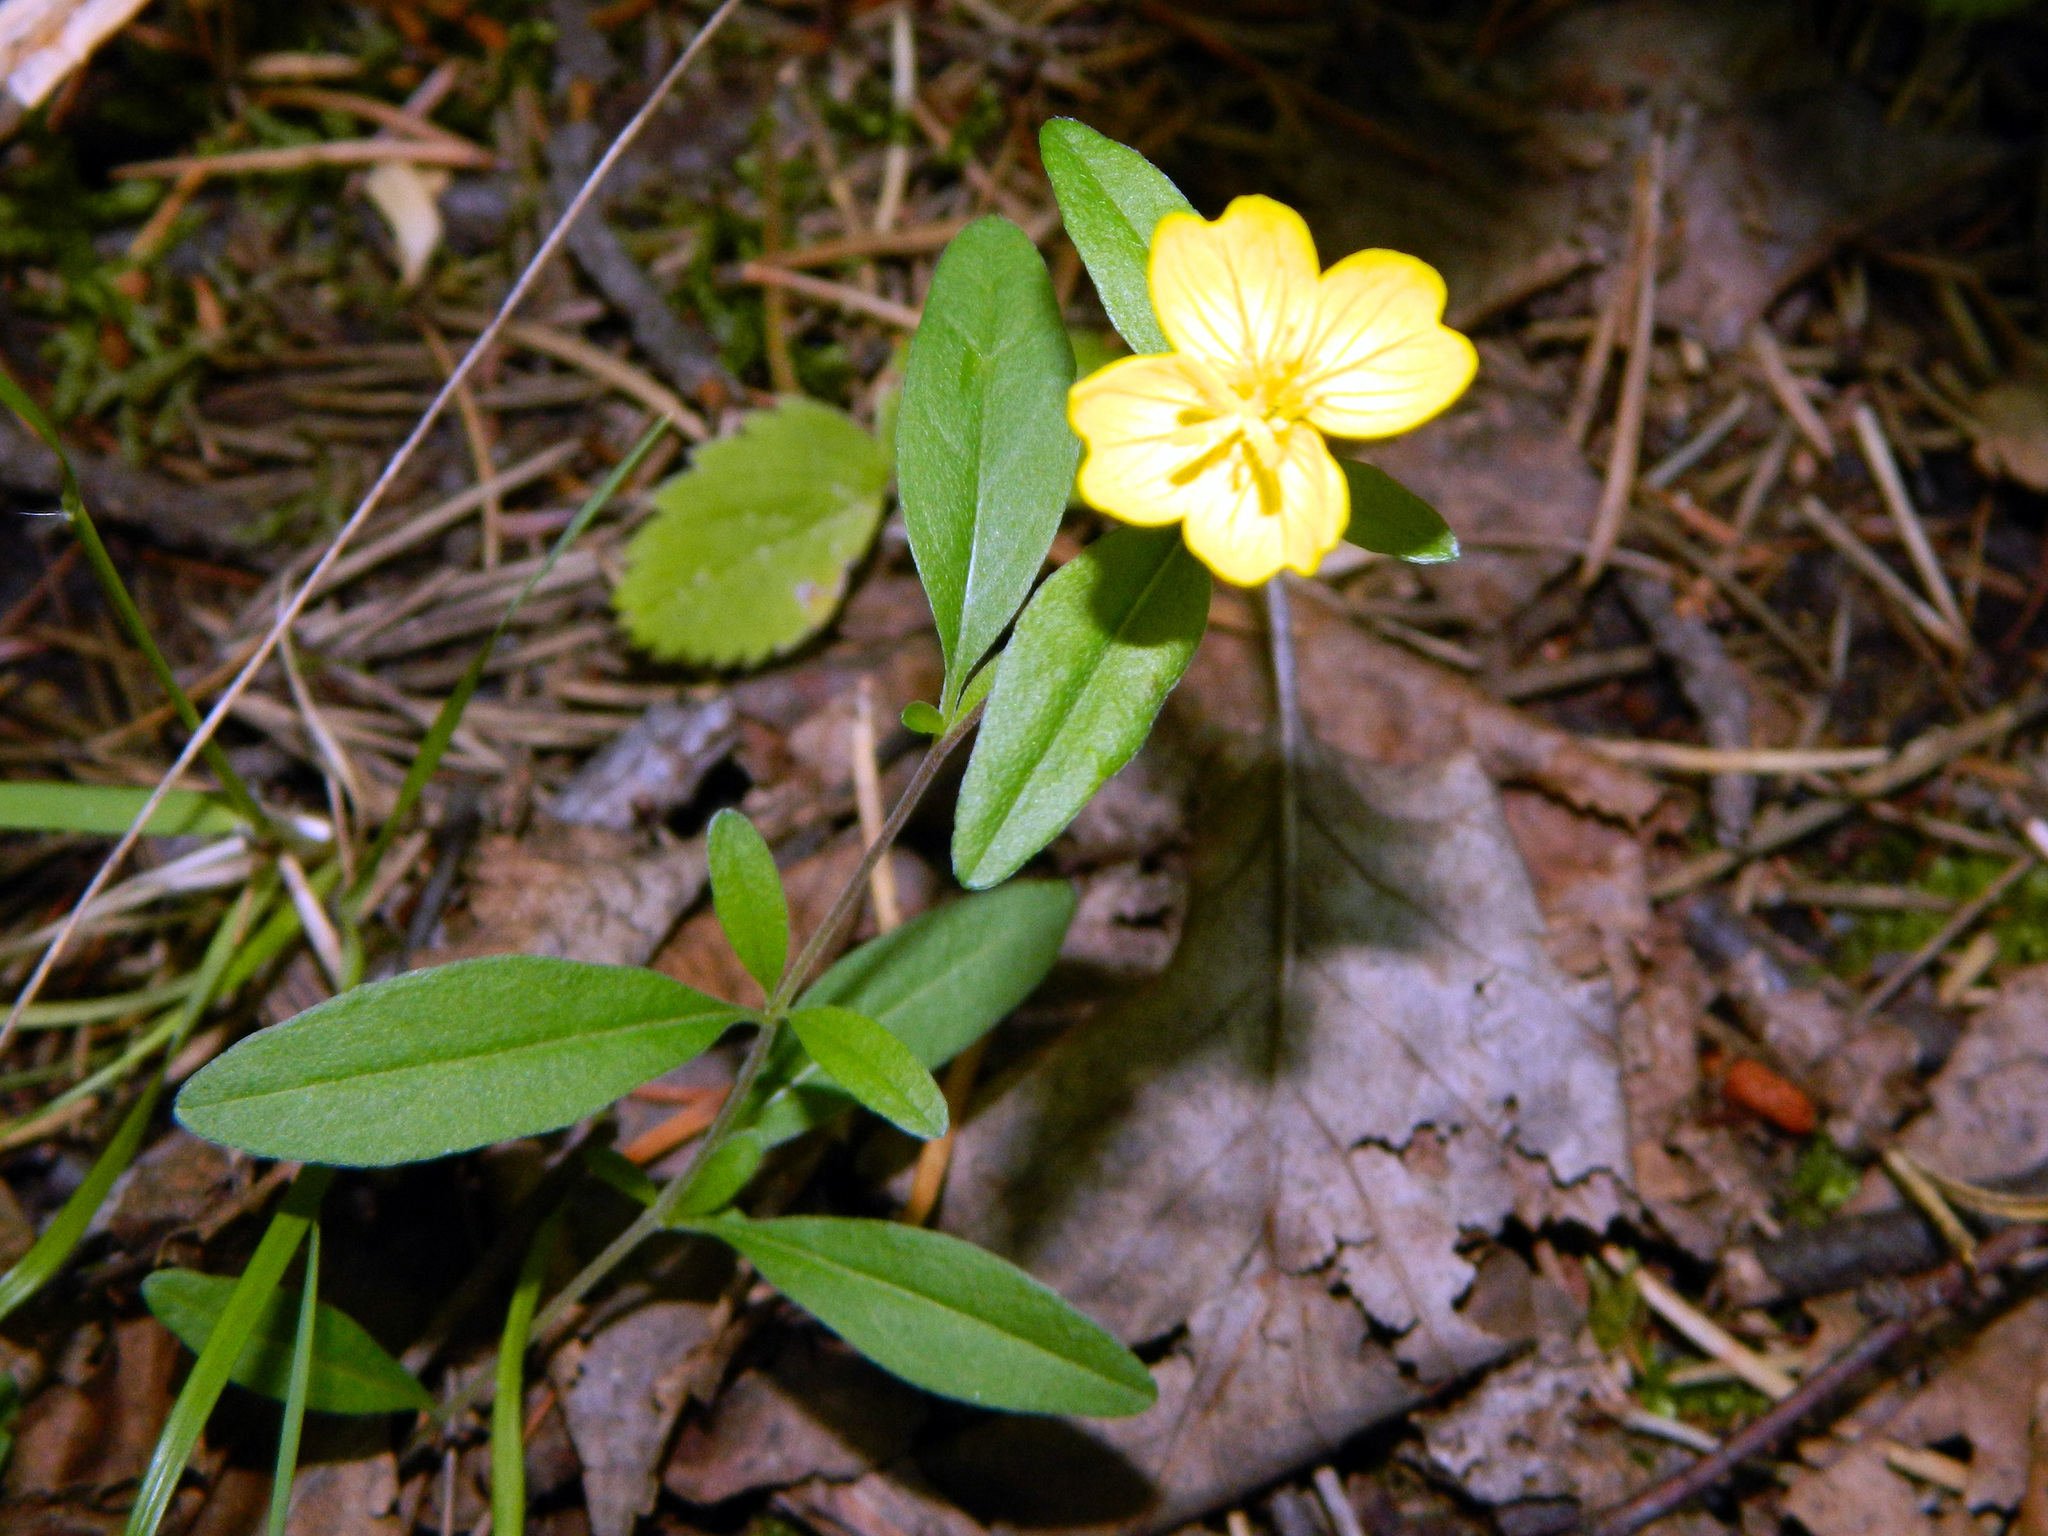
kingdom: Plantae
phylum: Tracheophyta
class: Magnoliopsida
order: Myrtales
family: Onagraceae
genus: Oenothera
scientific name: Oenothera perennis
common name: Small sundrops
